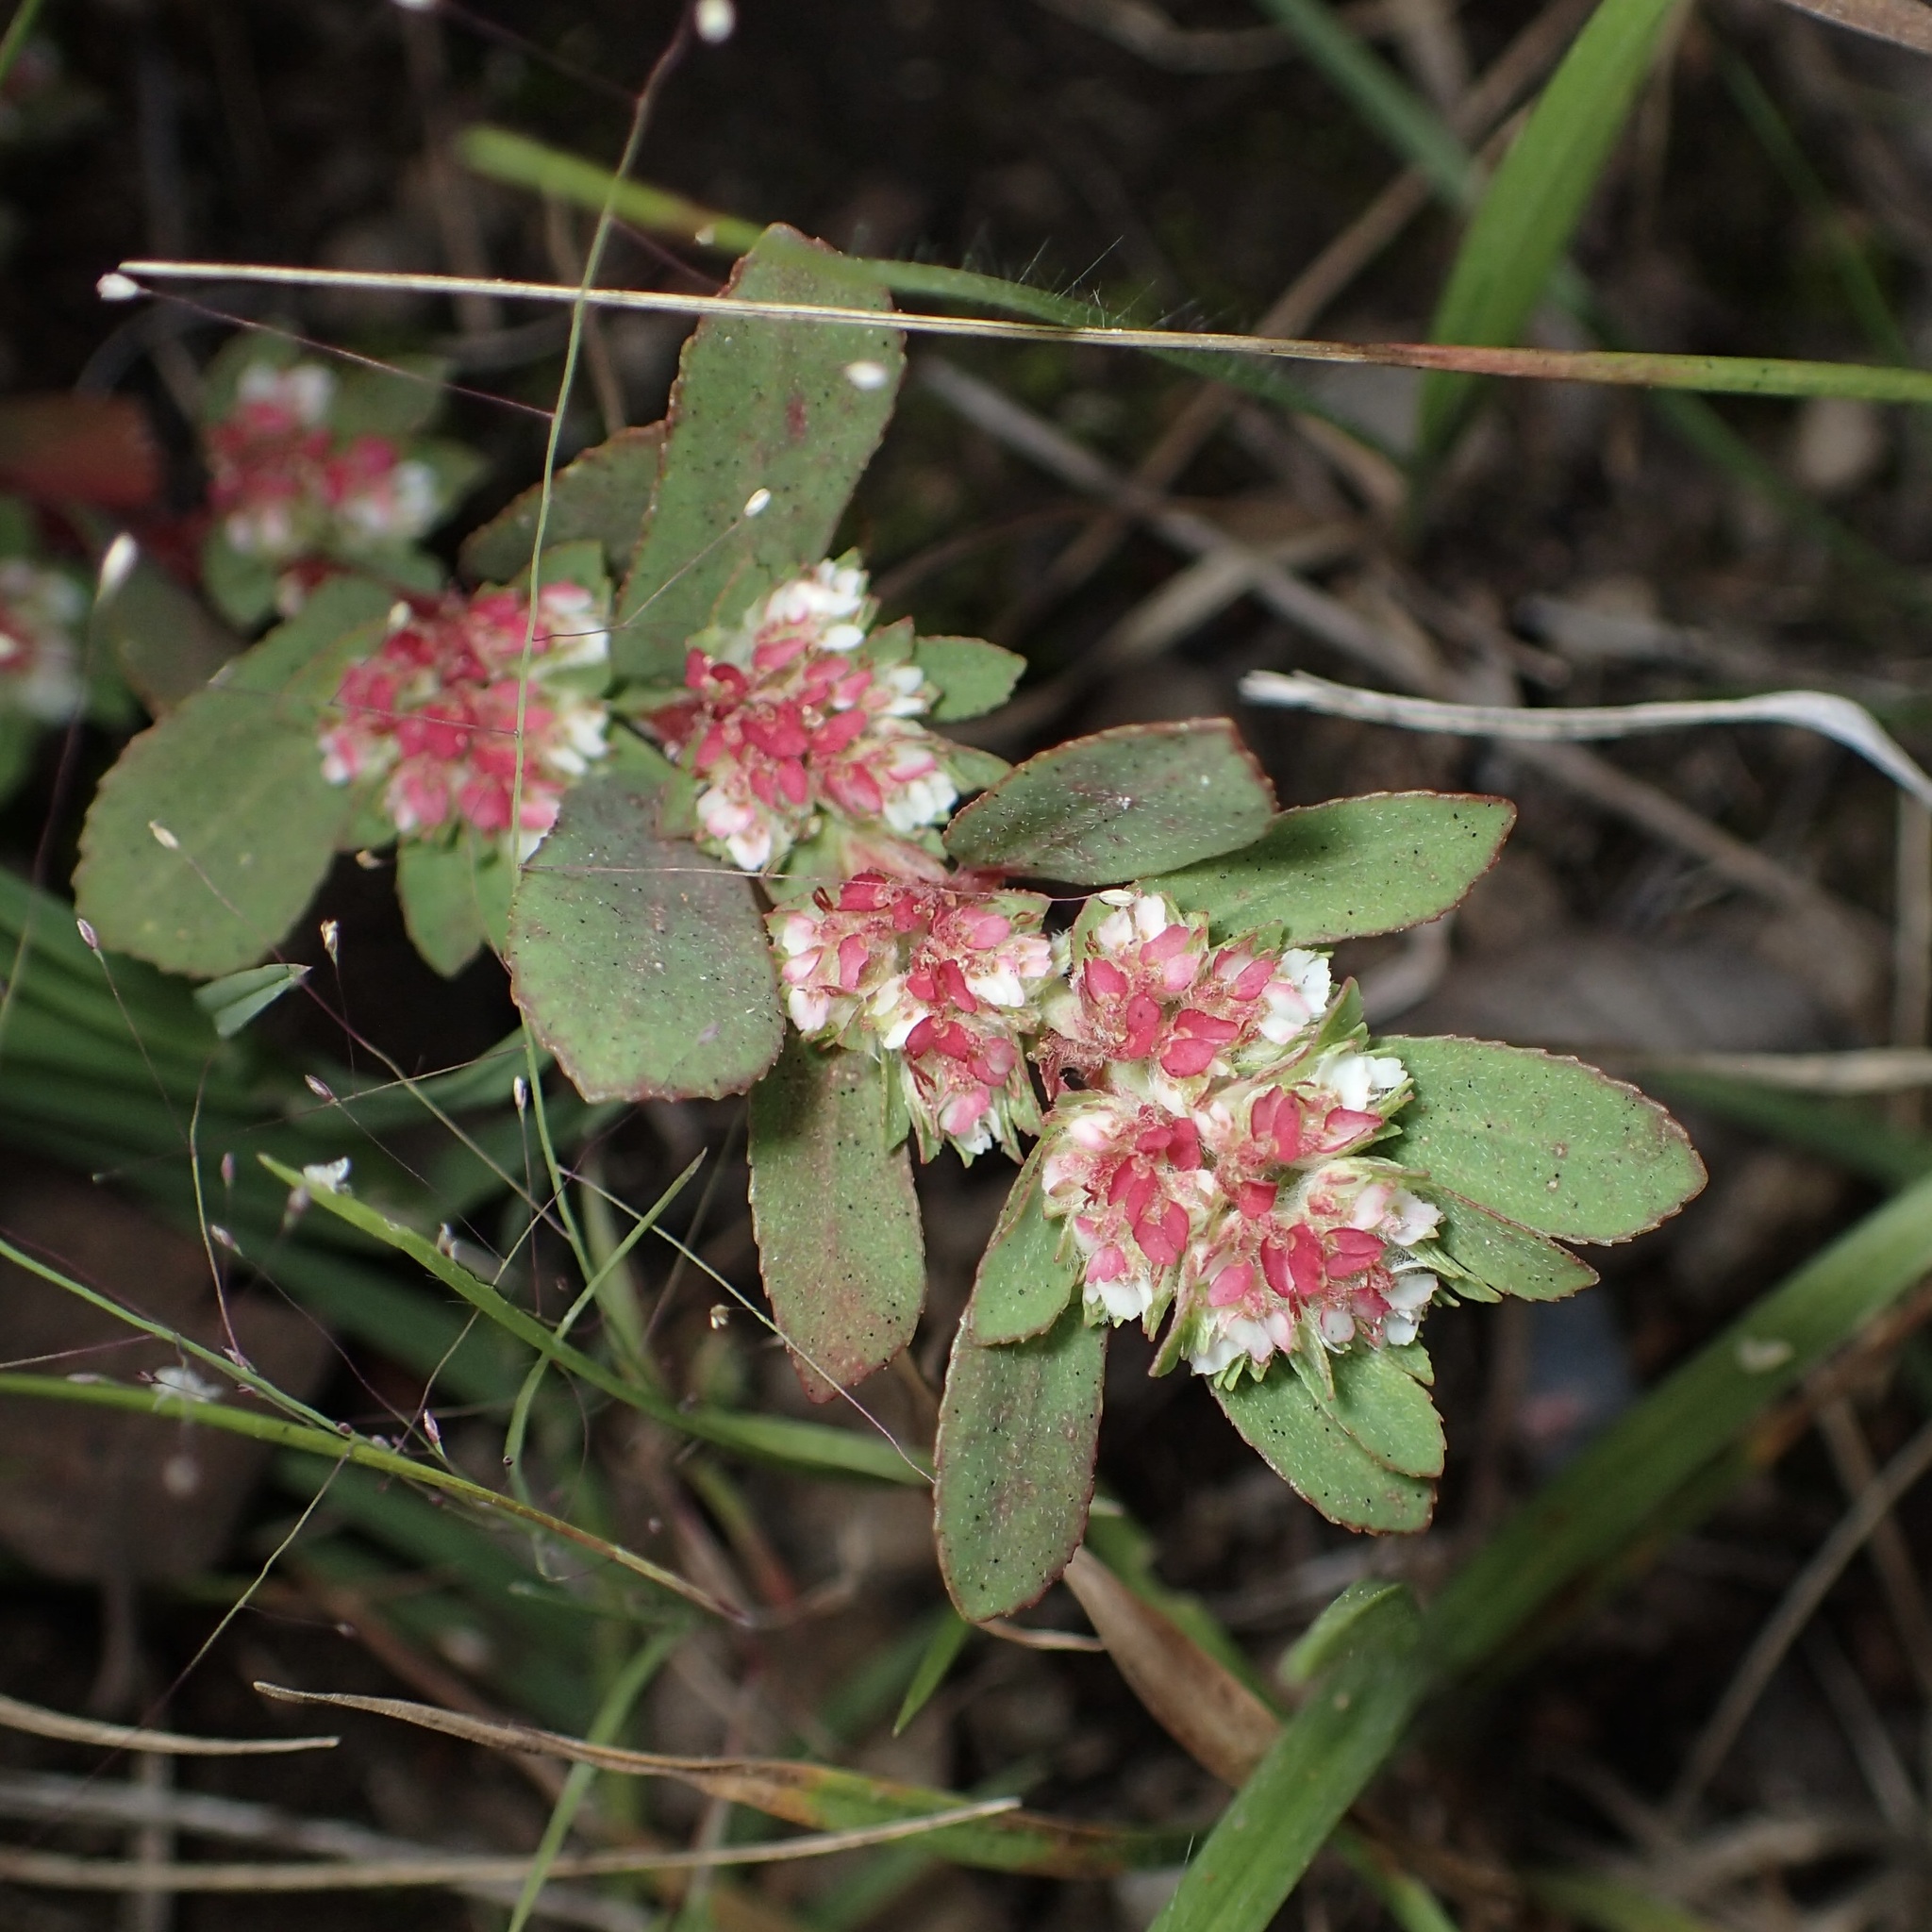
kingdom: Plantae
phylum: Tracheophyta
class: Magnoliopsida
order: Malpighiales
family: Euphorbiaceae
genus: Euphorbia
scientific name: Euphorbia indivisa
